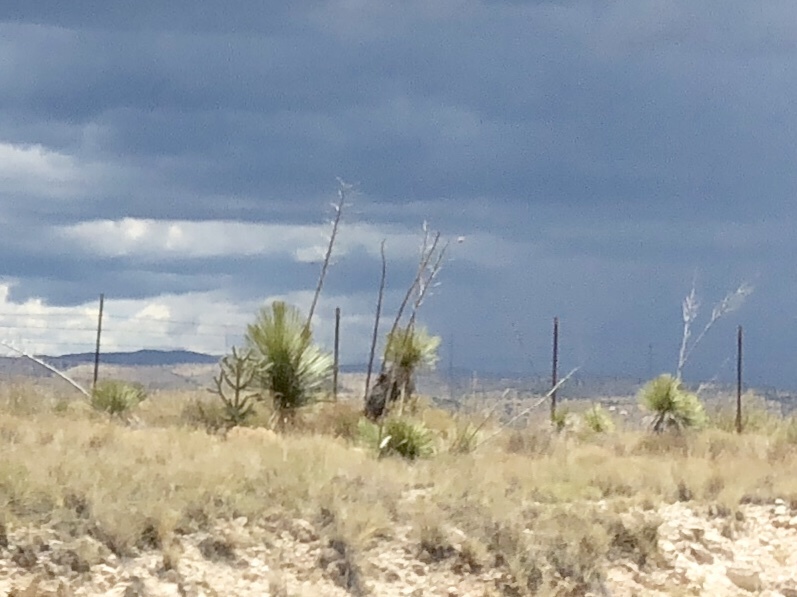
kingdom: Plantae
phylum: Tracheophyta
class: Liliopsida
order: Asparagales
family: Asparagaceae
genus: Yucca
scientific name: Yucca elata
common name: Palmella
